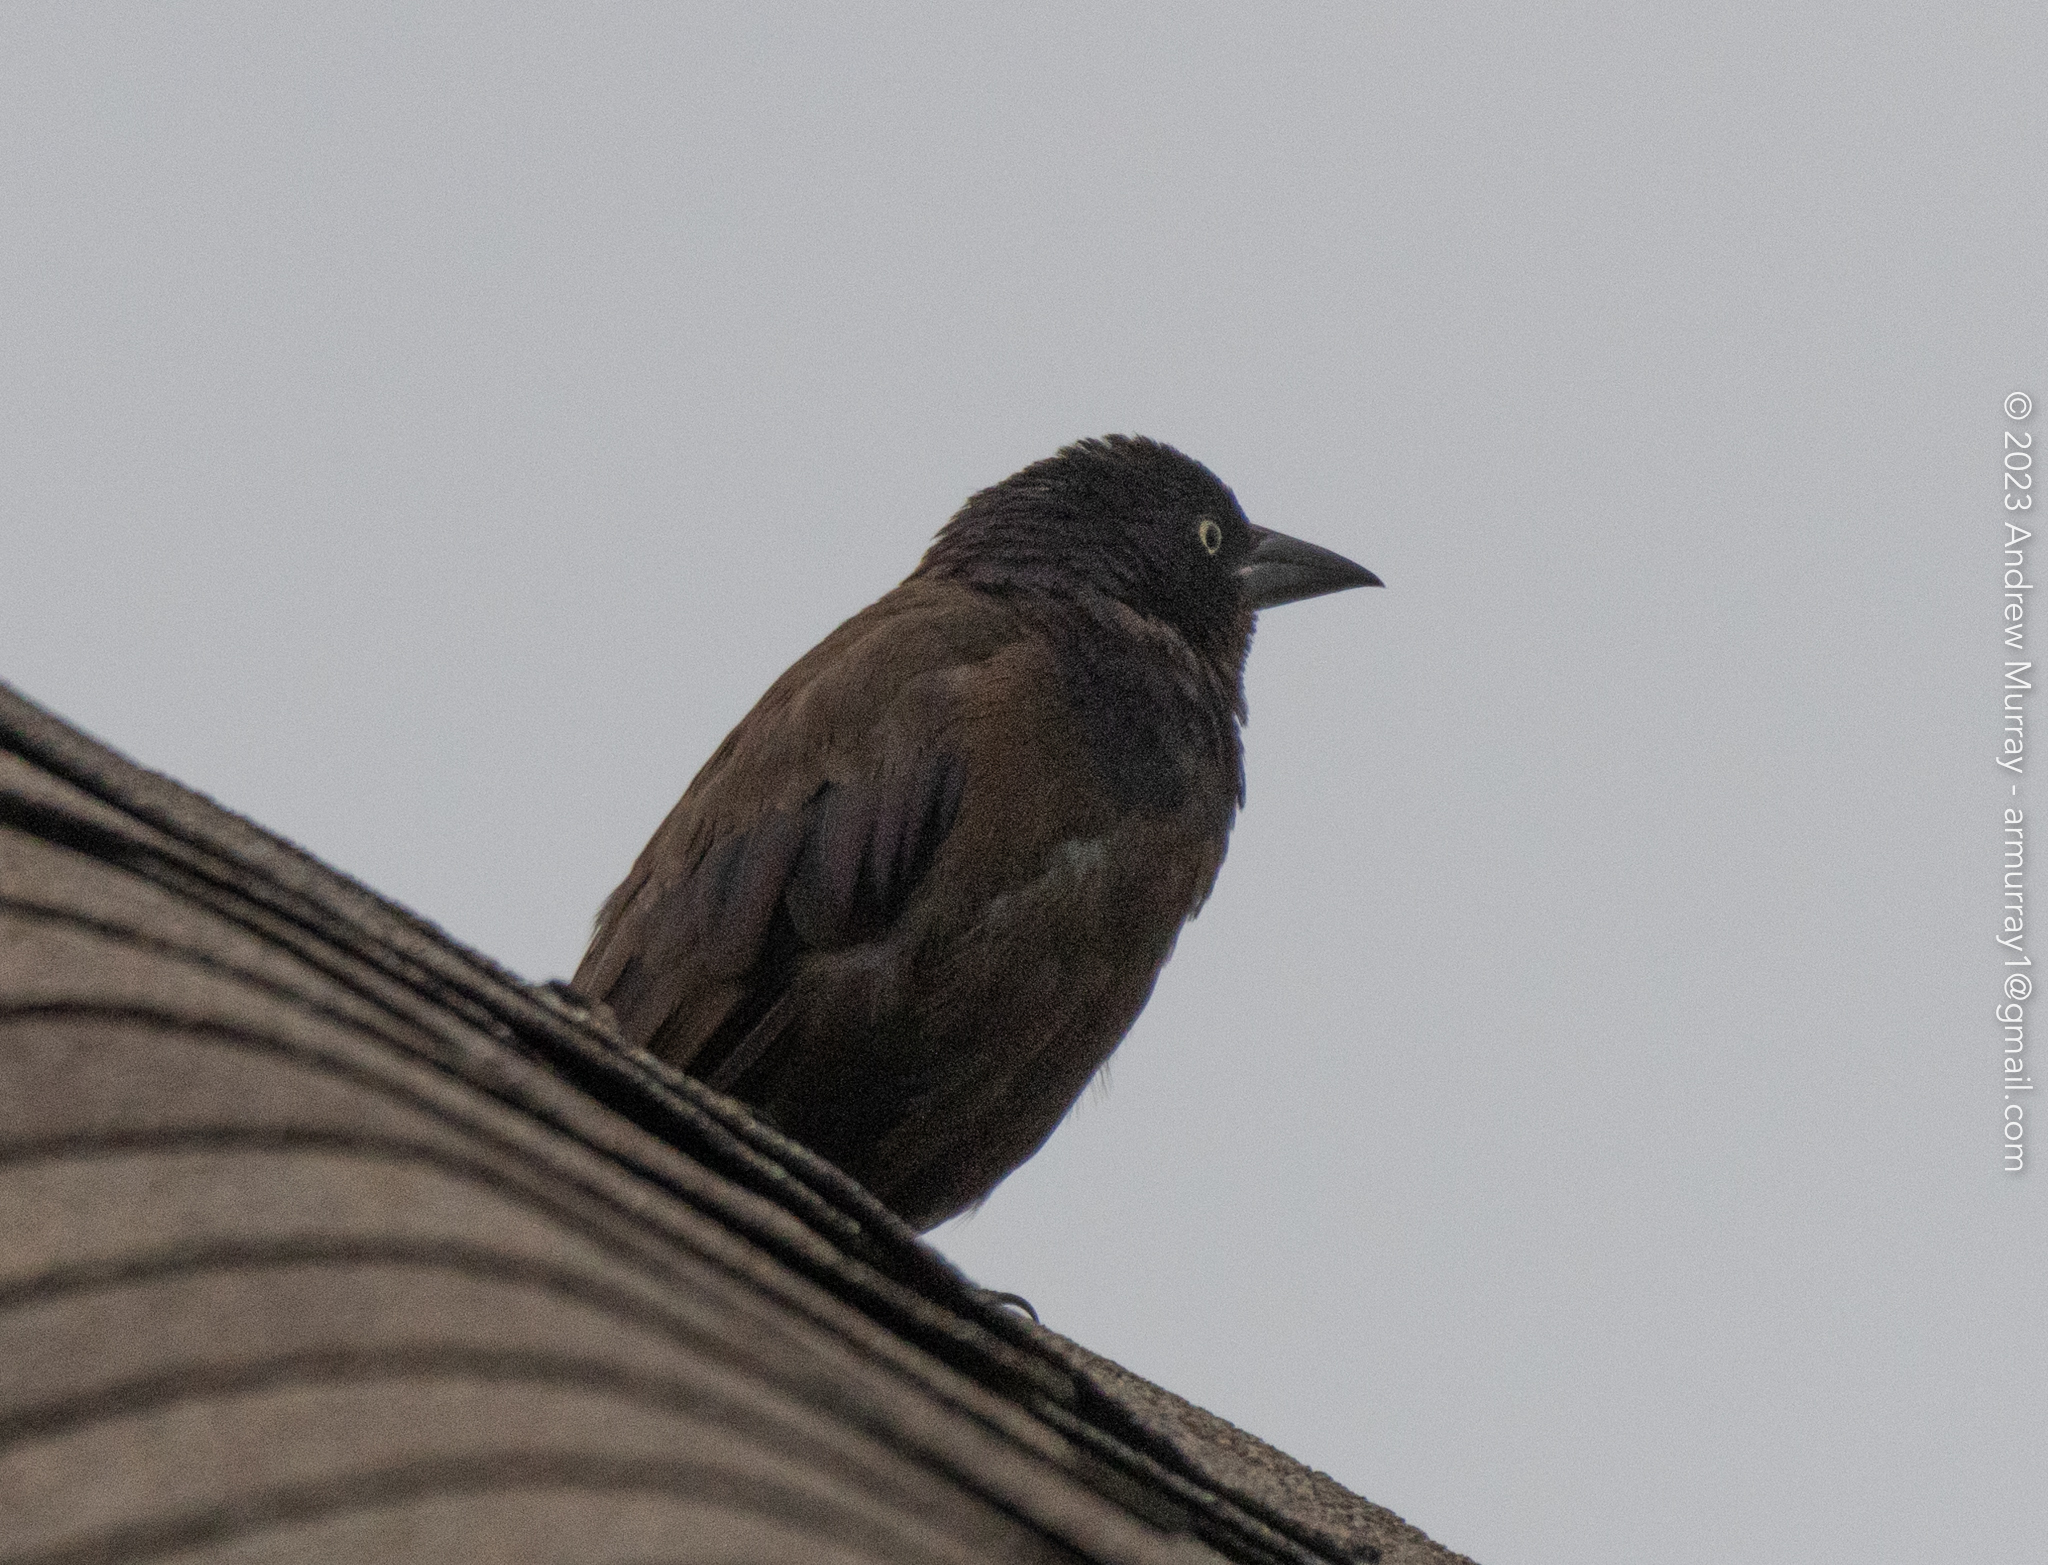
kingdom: Animalia
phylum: Chordata
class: Aves
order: Passeriformes
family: Icteridae
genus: Quiscalus
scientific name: Quiscalus quiscula
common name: Common grackle
